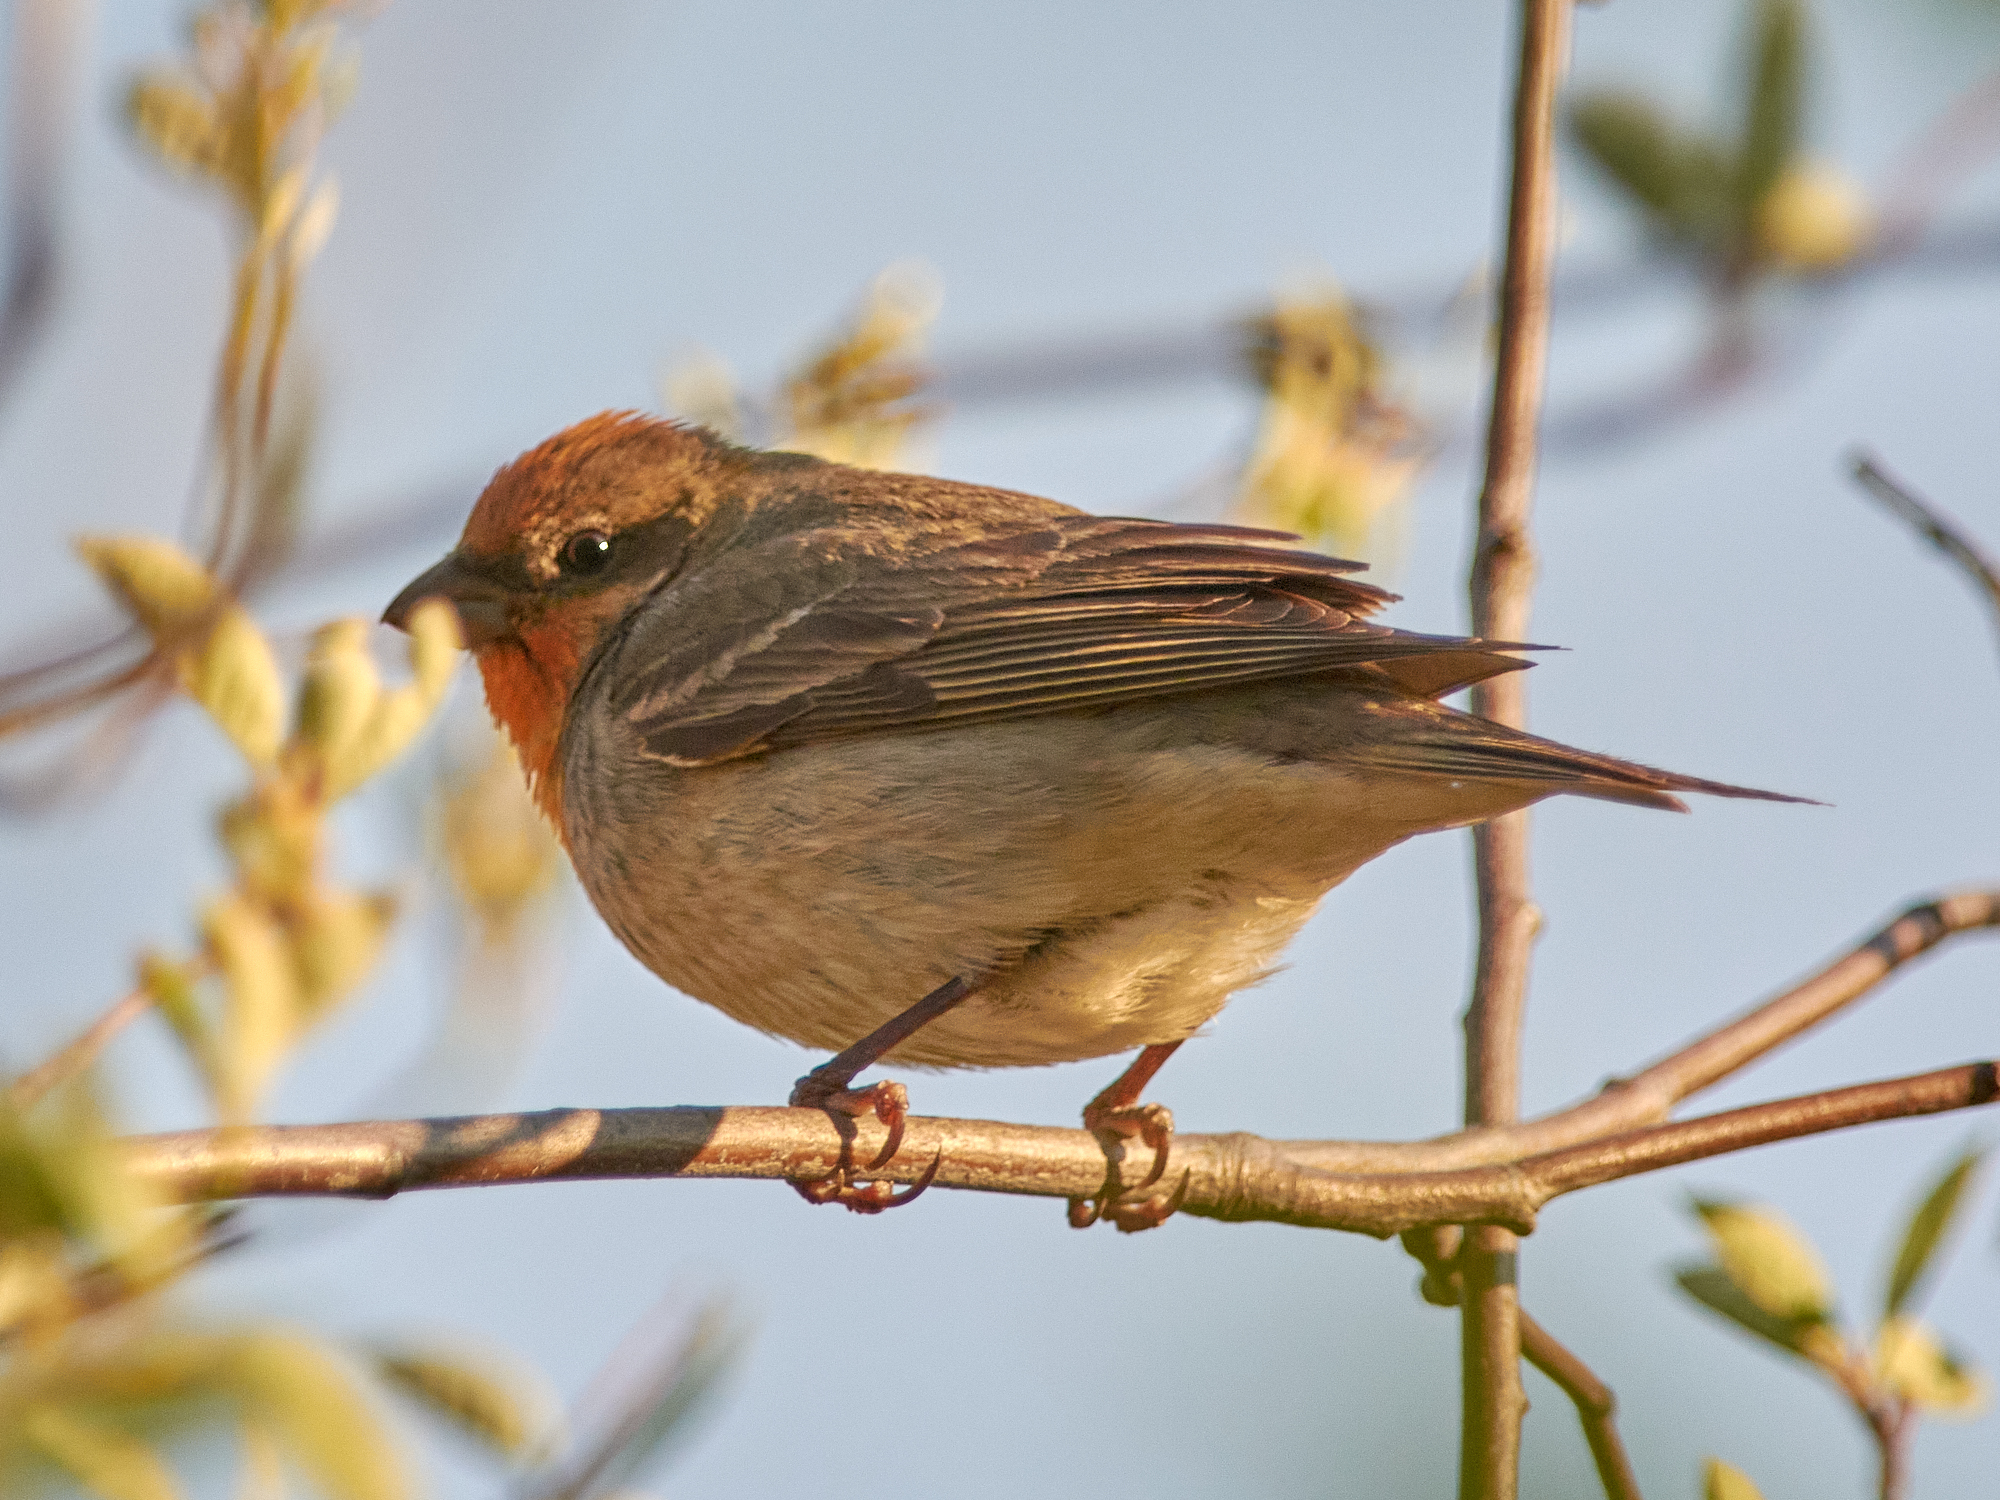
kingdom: Animalia
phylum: Chordata
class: Aves
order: Passeriformes
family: Fringillidae
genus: Carpodacus
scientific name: Carpodacus erythrinus
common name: Common rosefinch
